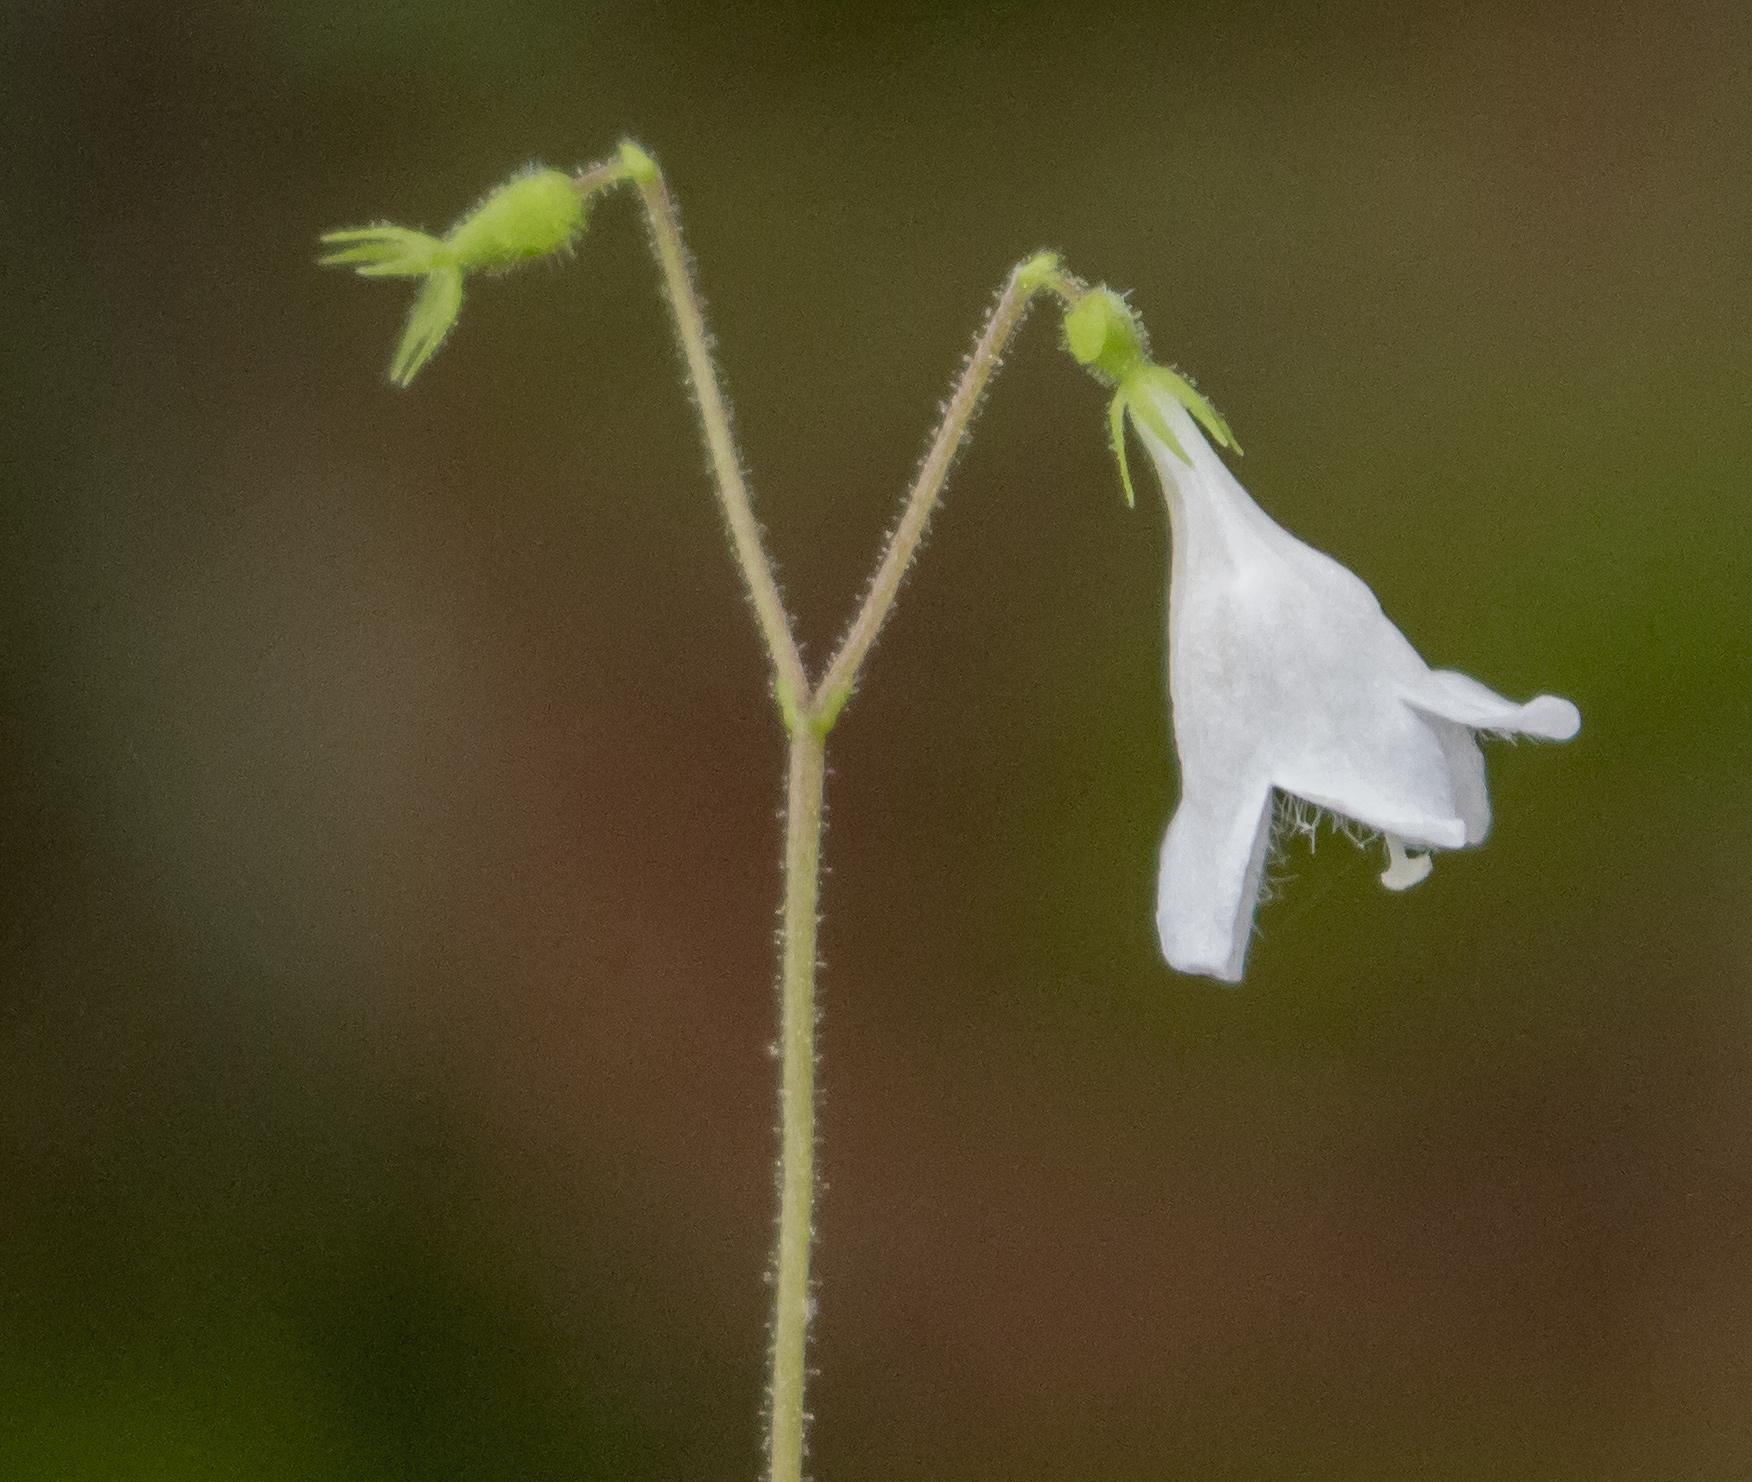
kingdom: Plantae
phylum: Tracheophyta
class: Magnoliopsida
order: Dipsacales
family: Caprifoliaceae
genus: Linnaea
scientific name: Linnaea borealis
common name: Twinflower
